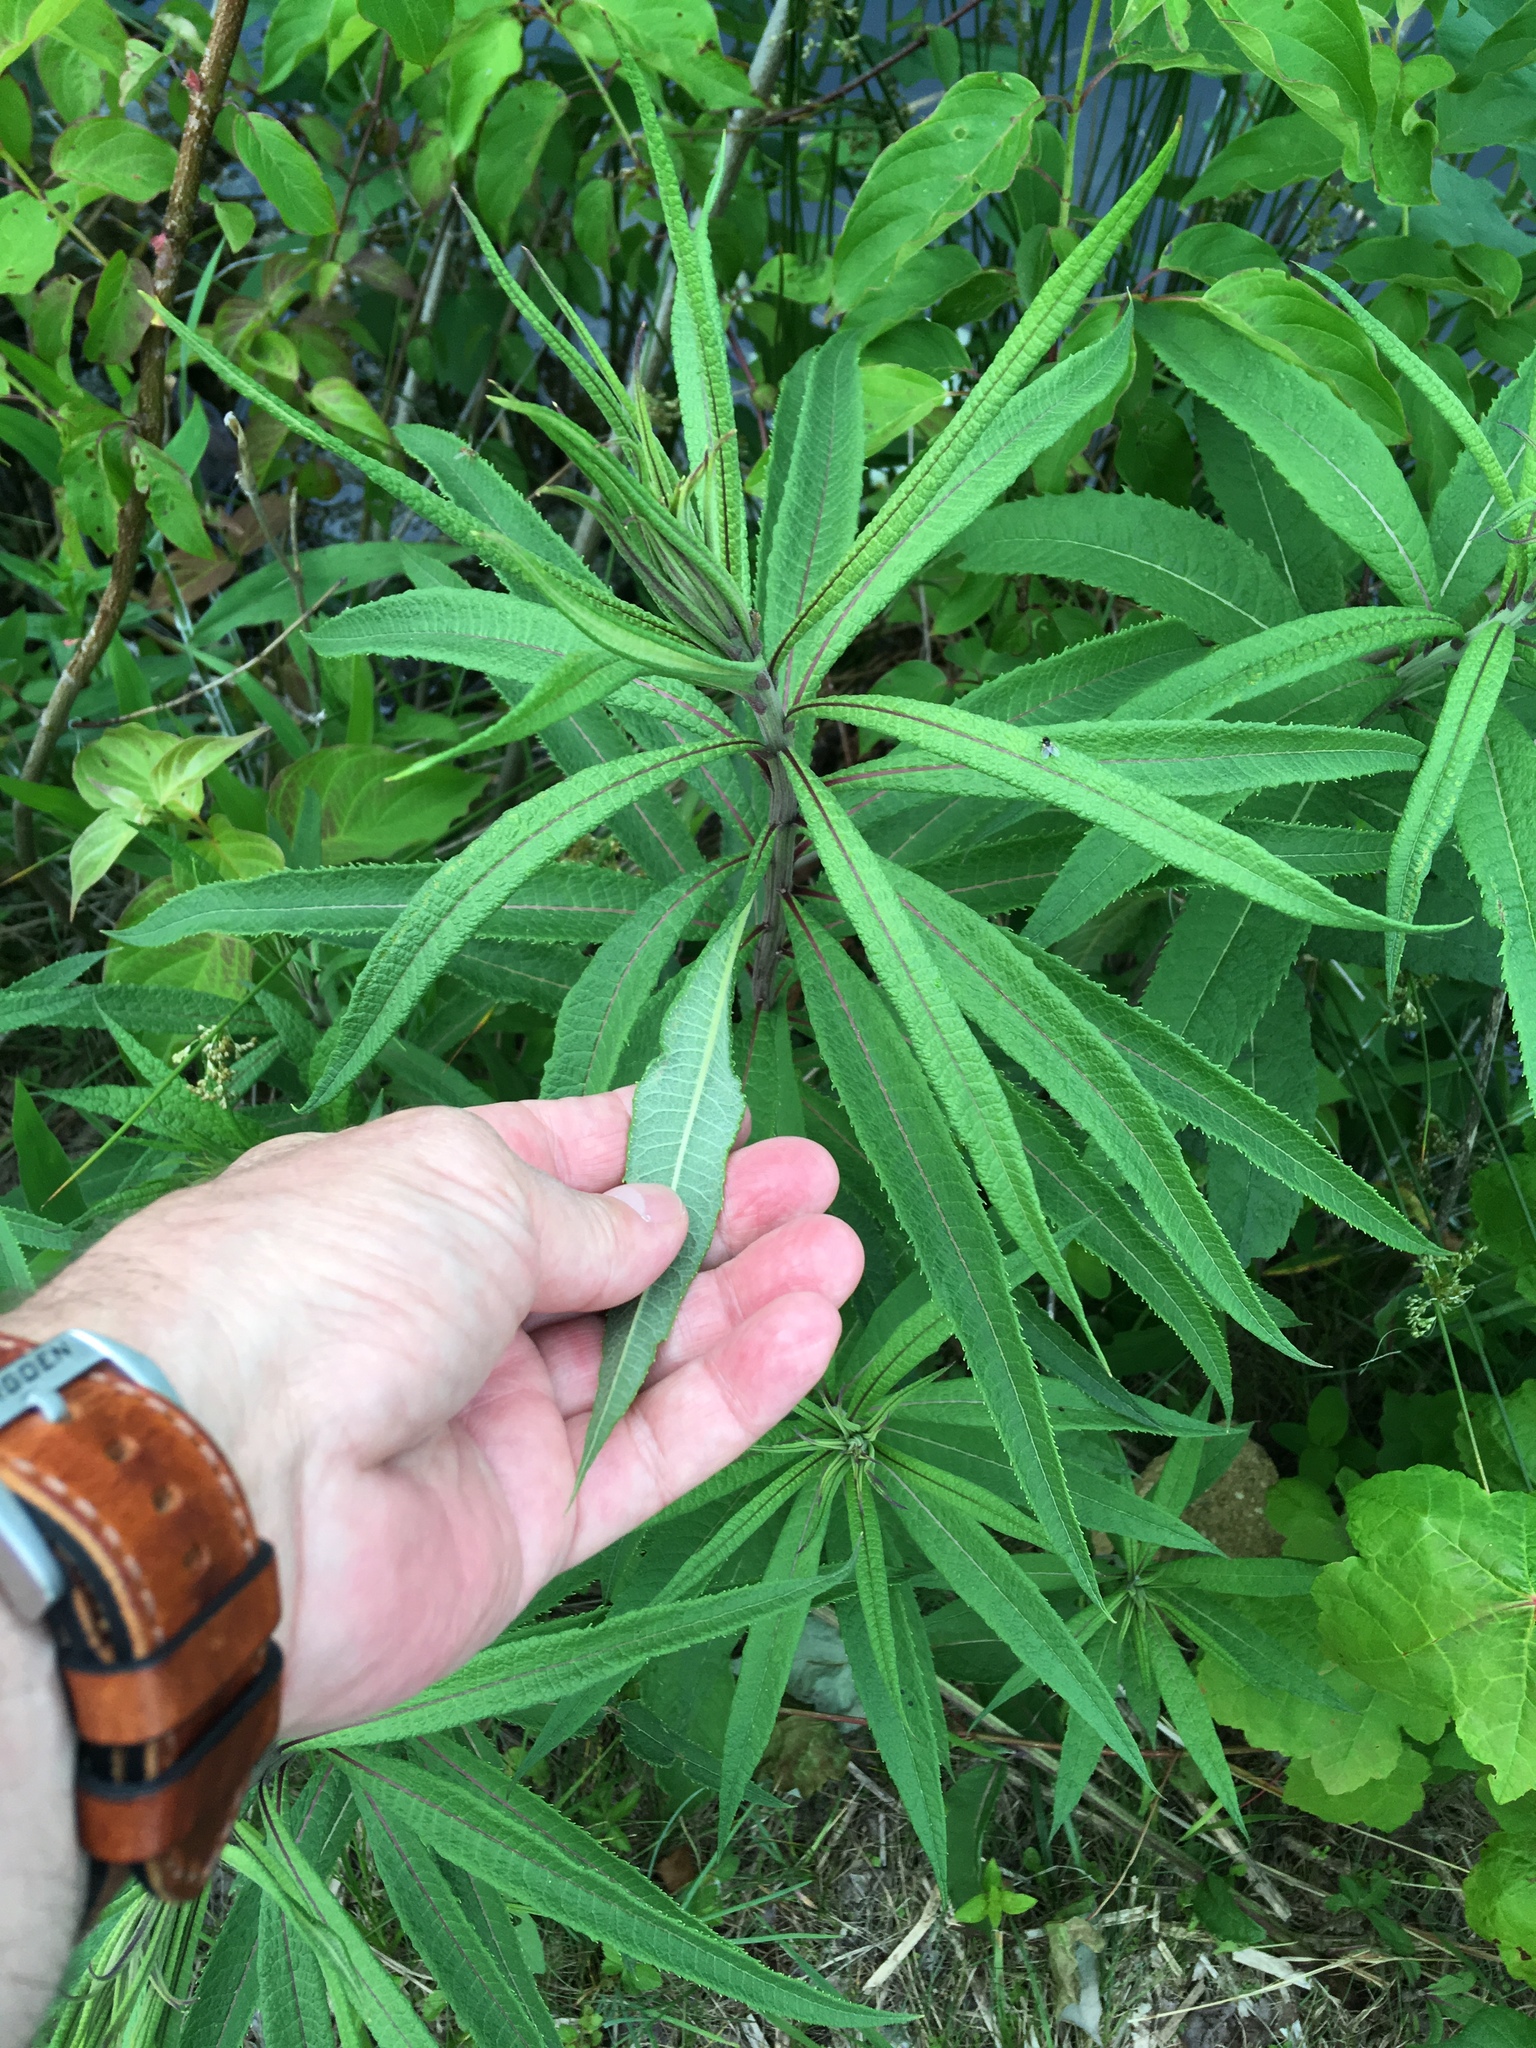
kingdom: Plantae
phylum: Tracheophyta
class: Magnoliopsida
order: Asterales
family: Asteraceae
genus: Vernonia
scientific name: Vernonia noveboracensis
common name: New york ironweed
